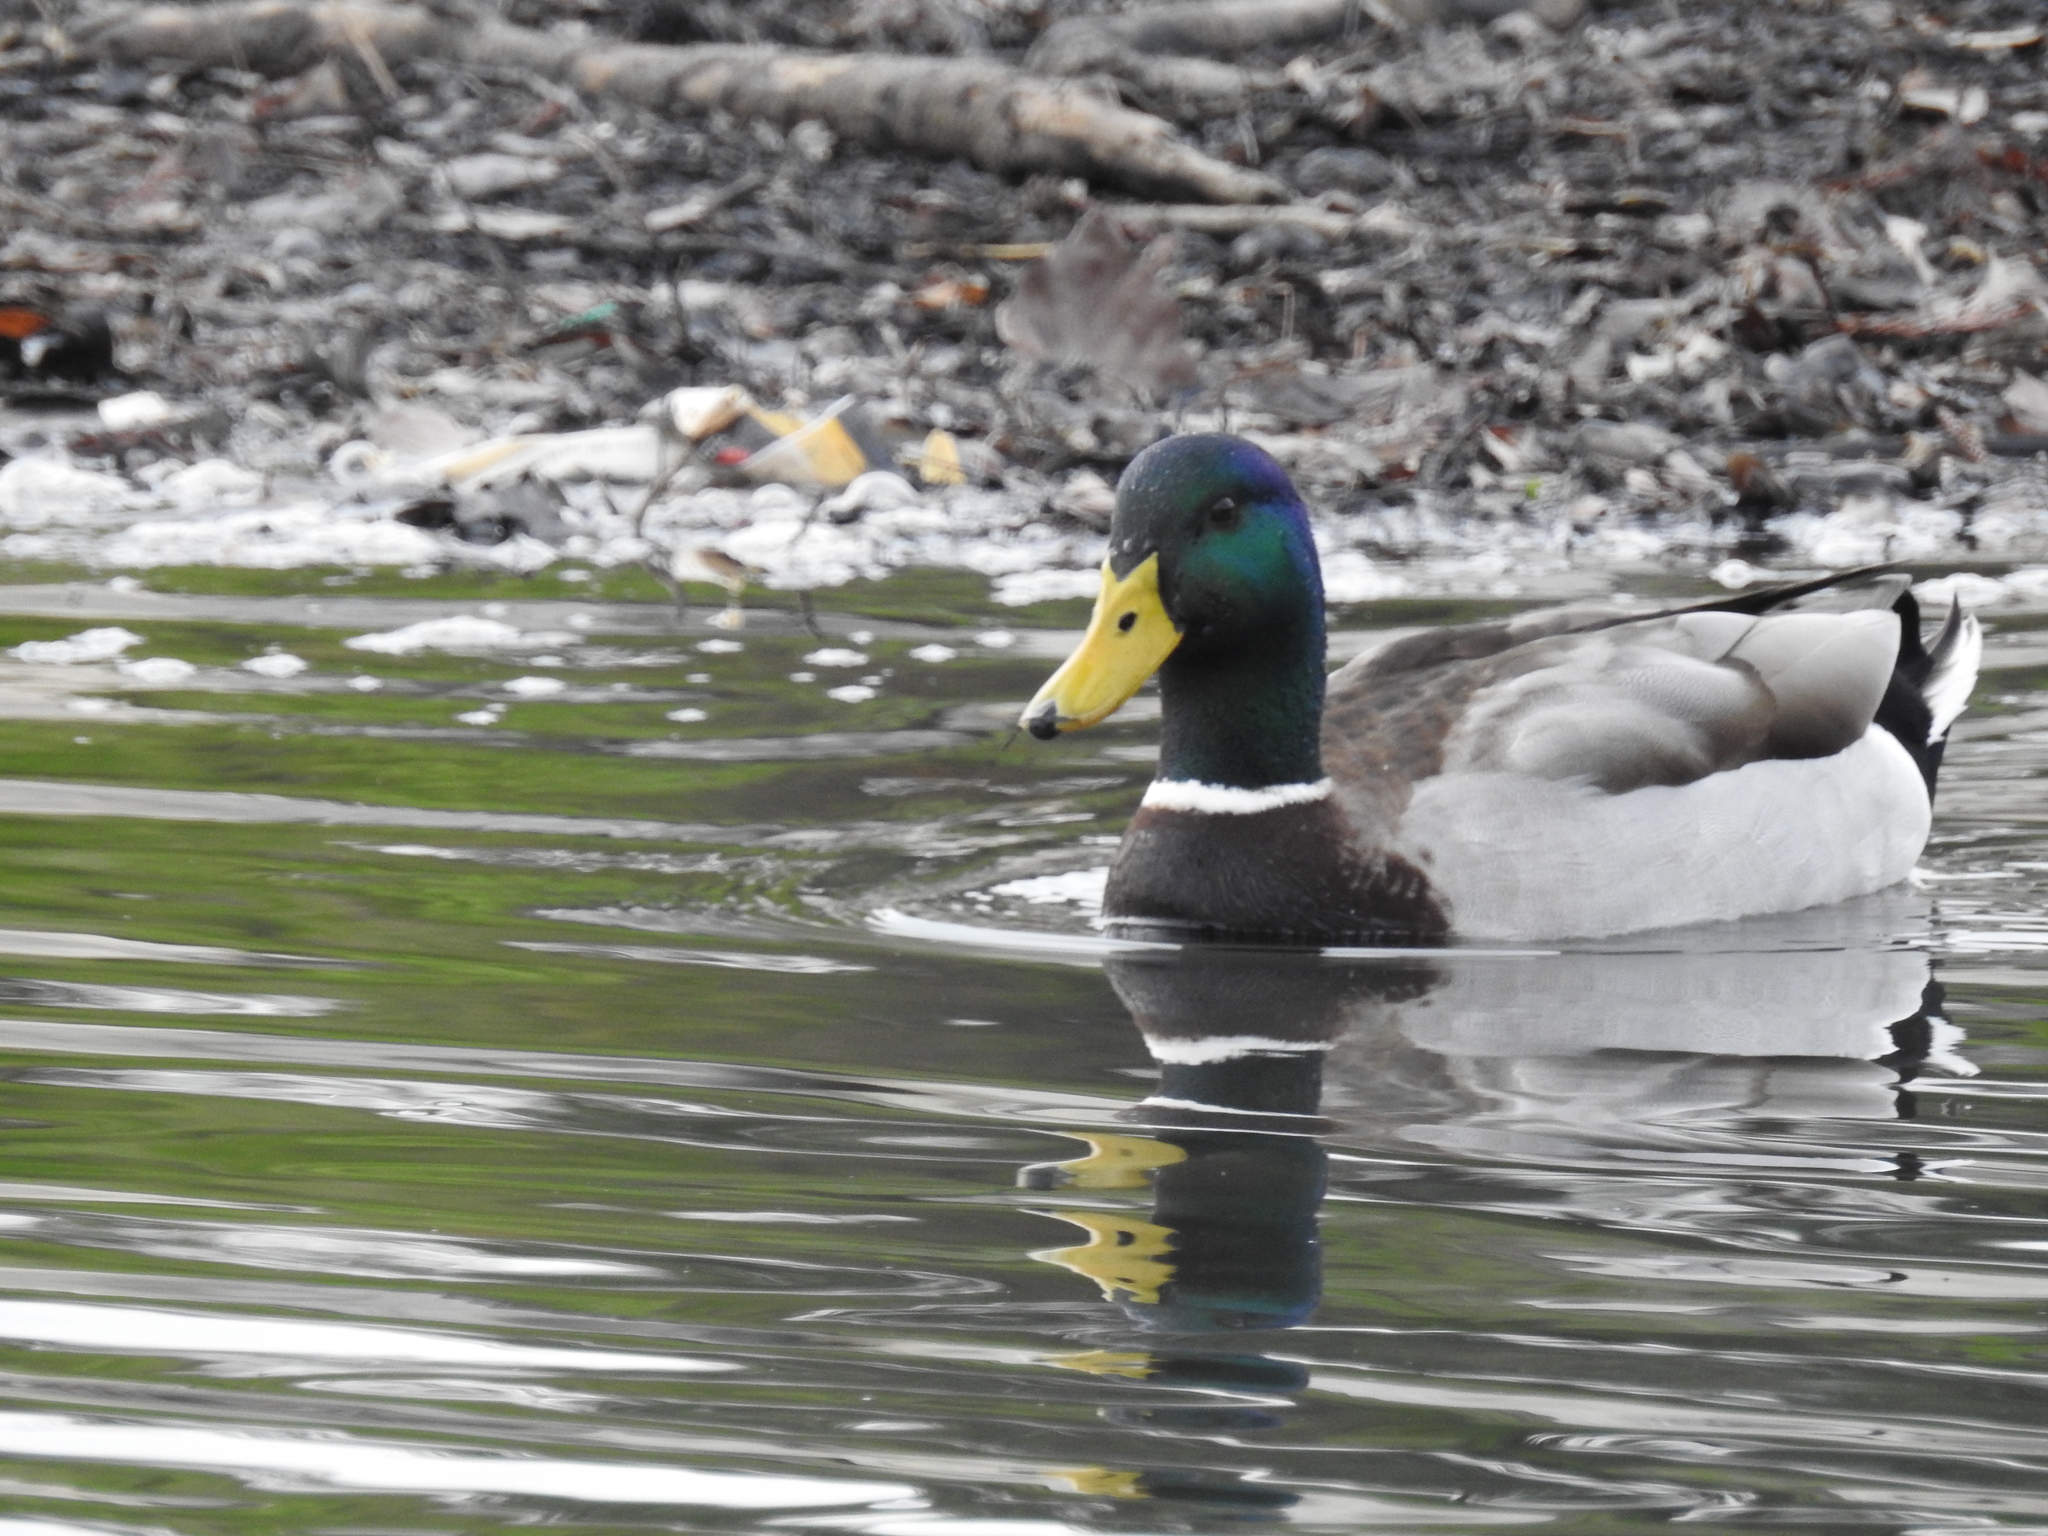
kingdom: Animalia
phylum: Chordata
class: Aves
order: Anseriformes
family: Anatidae
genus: Anas
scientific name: Anas platyrhynchos
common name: Mallard
